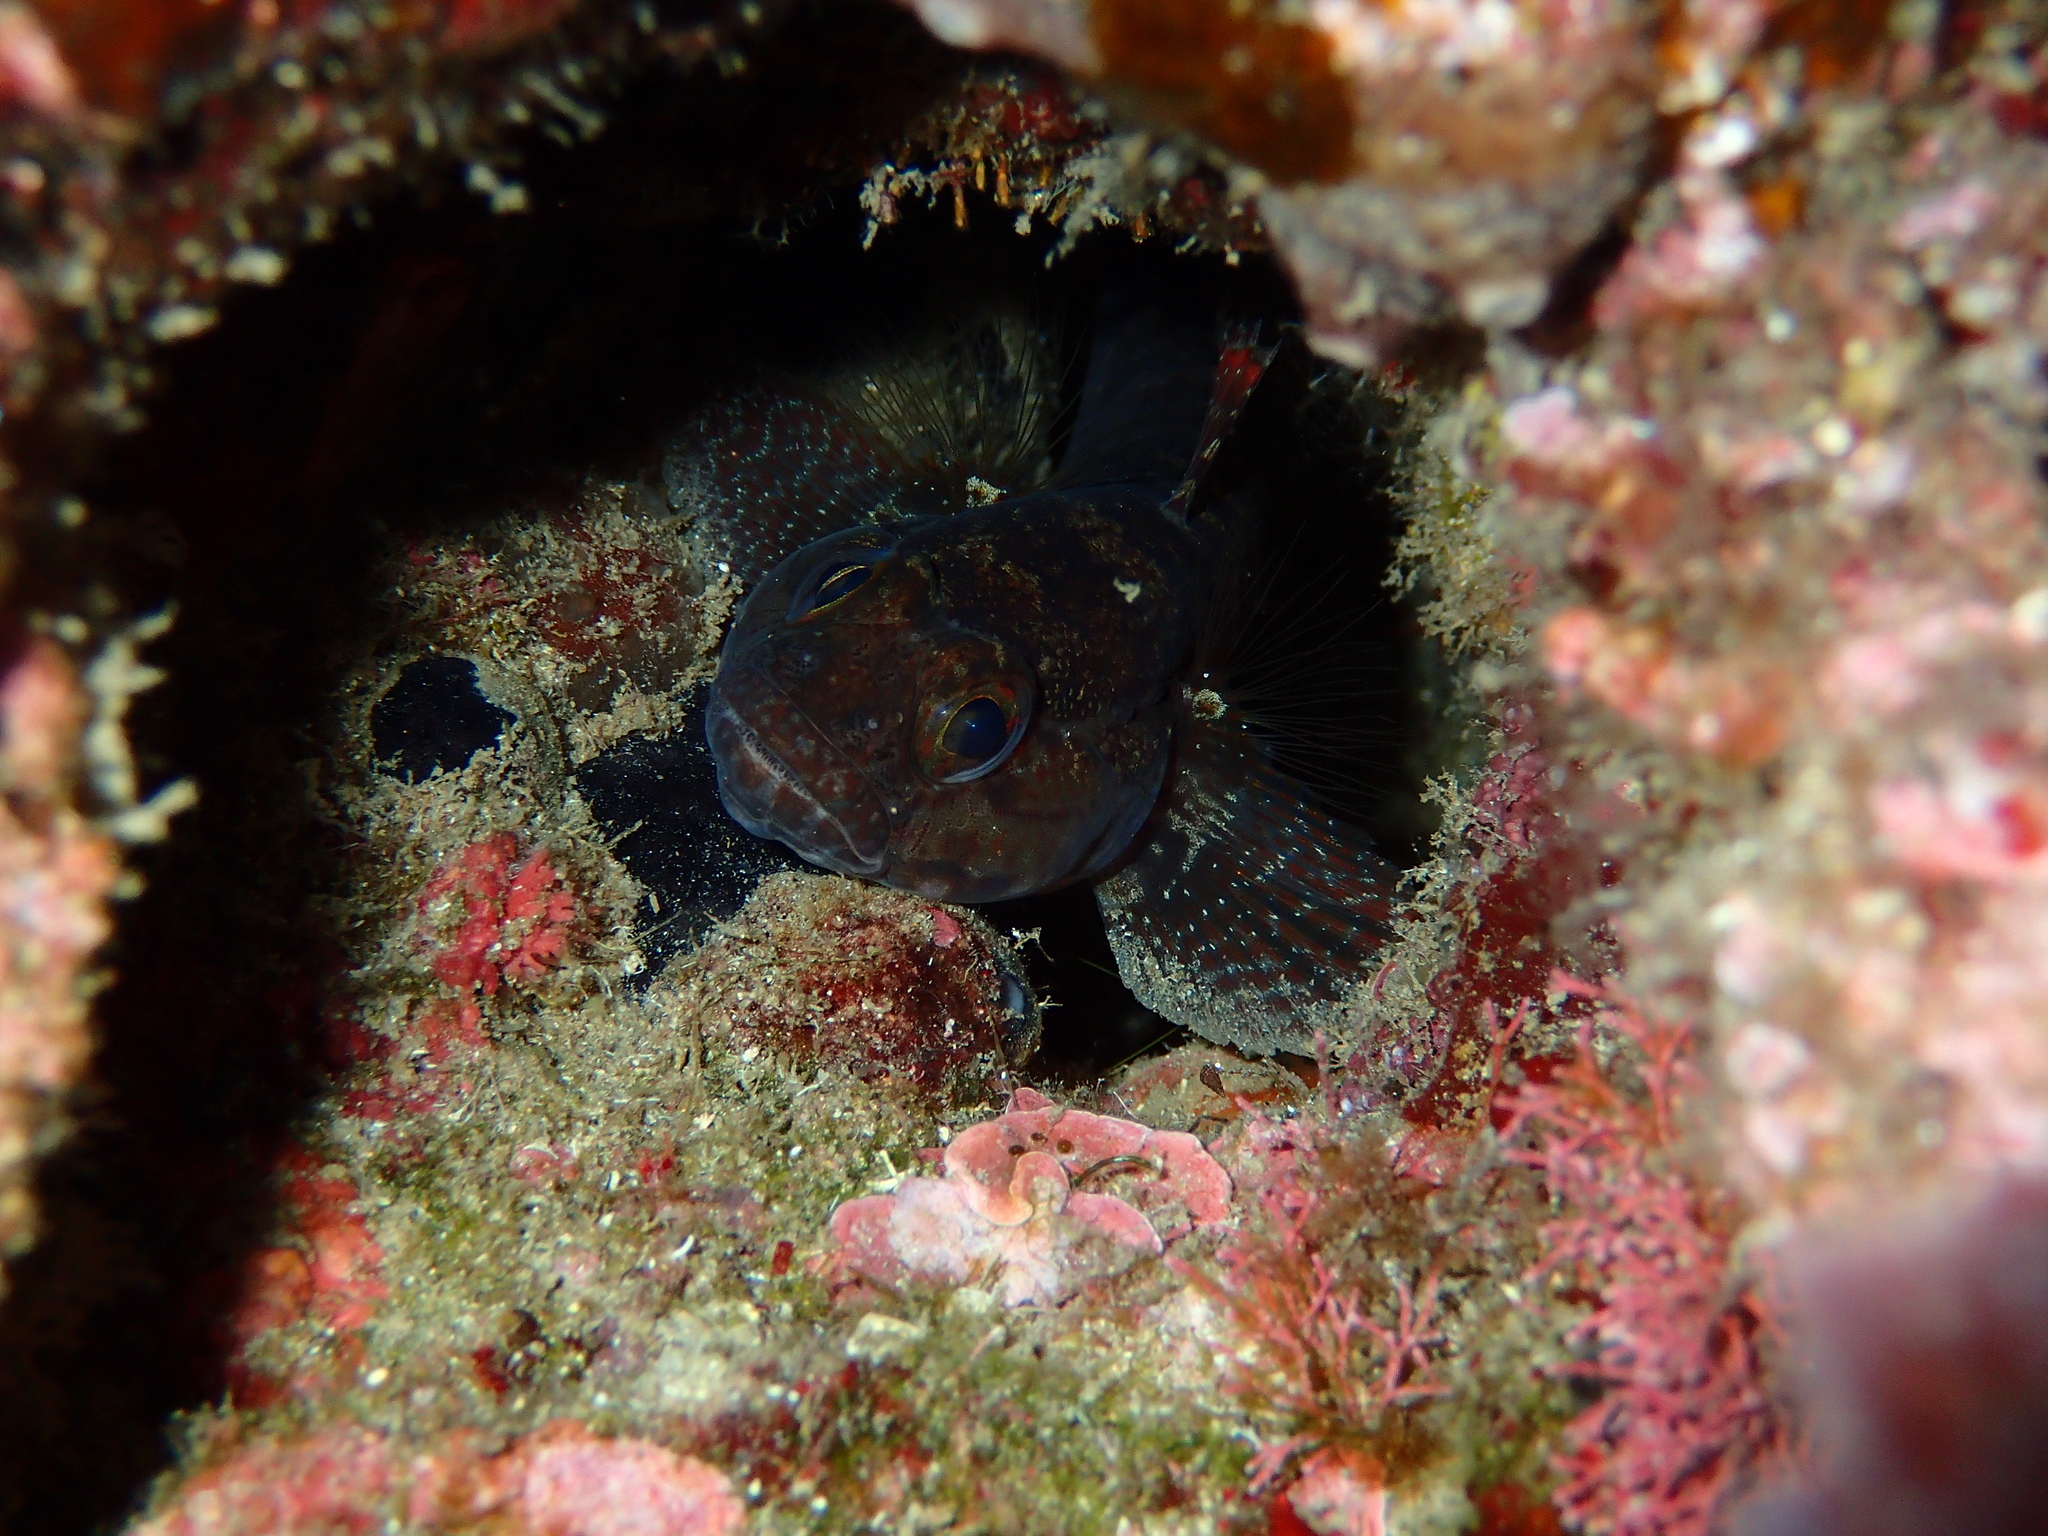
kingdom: Animalia
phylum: Chordata
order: Perciformes
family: Gobiidae
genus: Gobius
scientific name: Gobius paganellus
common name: Rock goby
